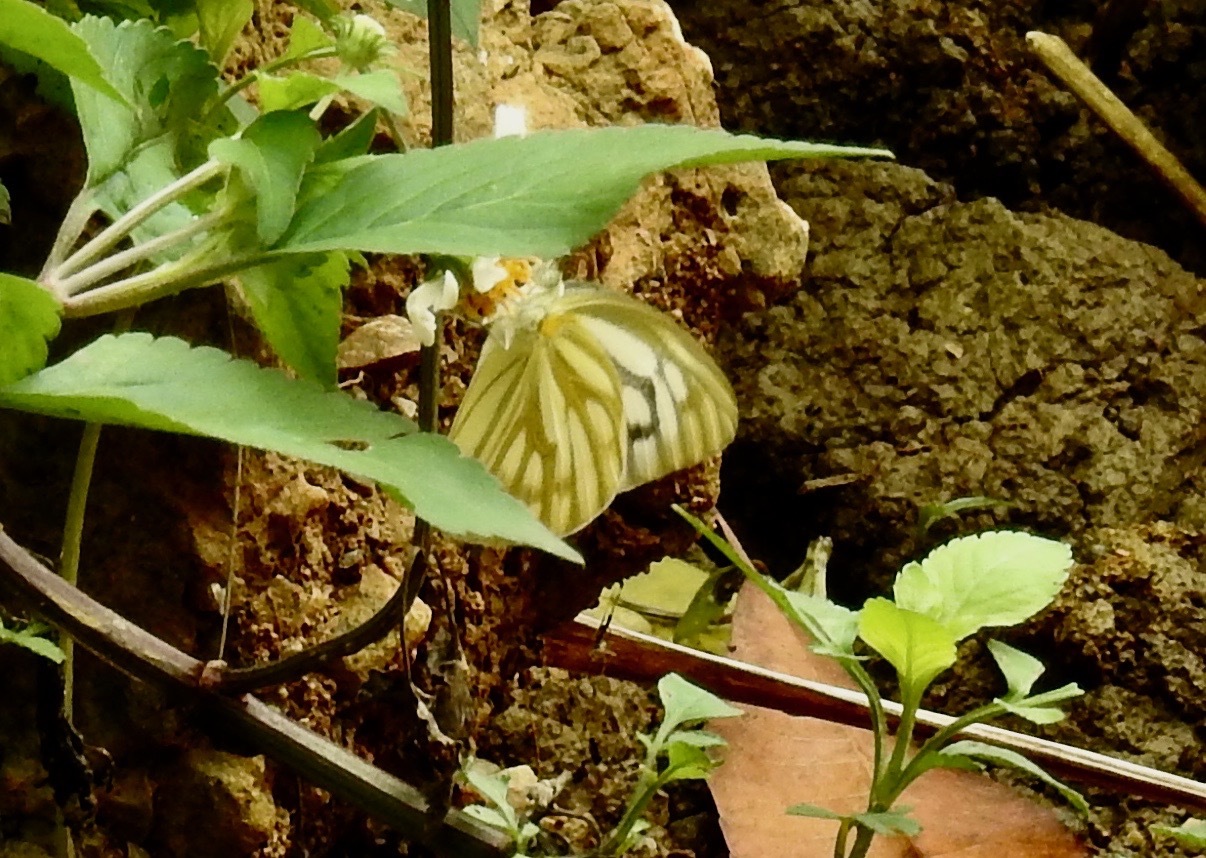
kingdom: Animalia
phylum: Arthropoda
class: Insecta
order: Lepidoptera
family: Pieridae
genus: Cepora
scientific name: Cepora nerissa
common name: Common gull
